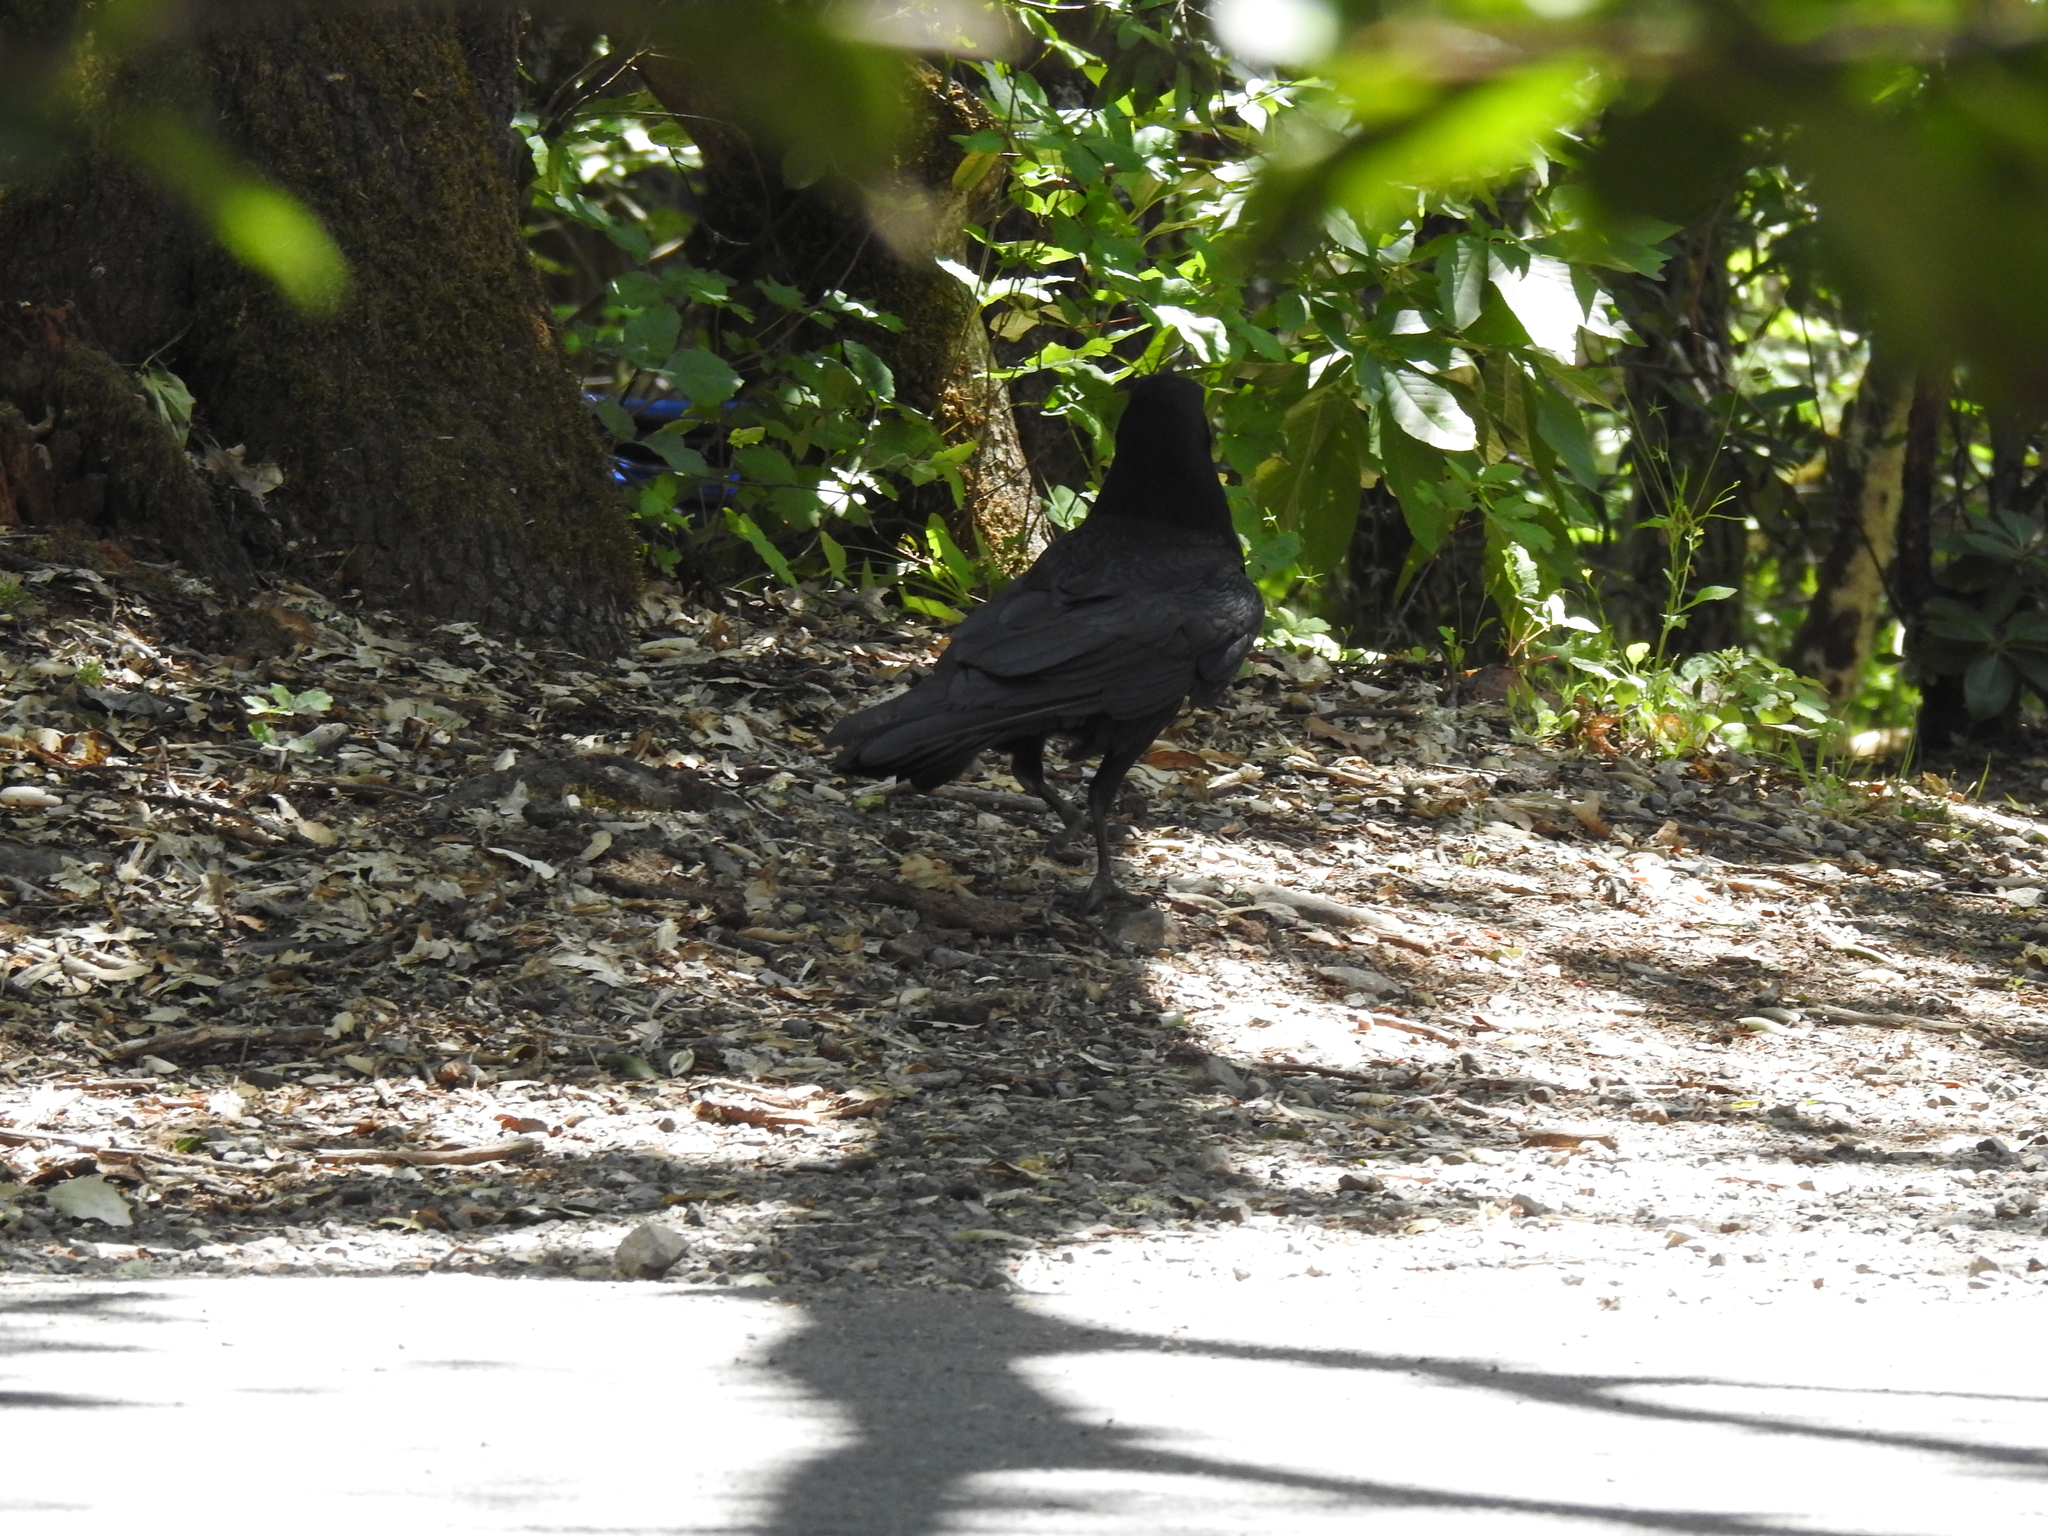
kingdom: Animalia
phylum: Chordata
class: Aves
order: Passeriformes
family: Corvidae
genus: Corvus
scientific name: Corvus corax
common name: Common raven
